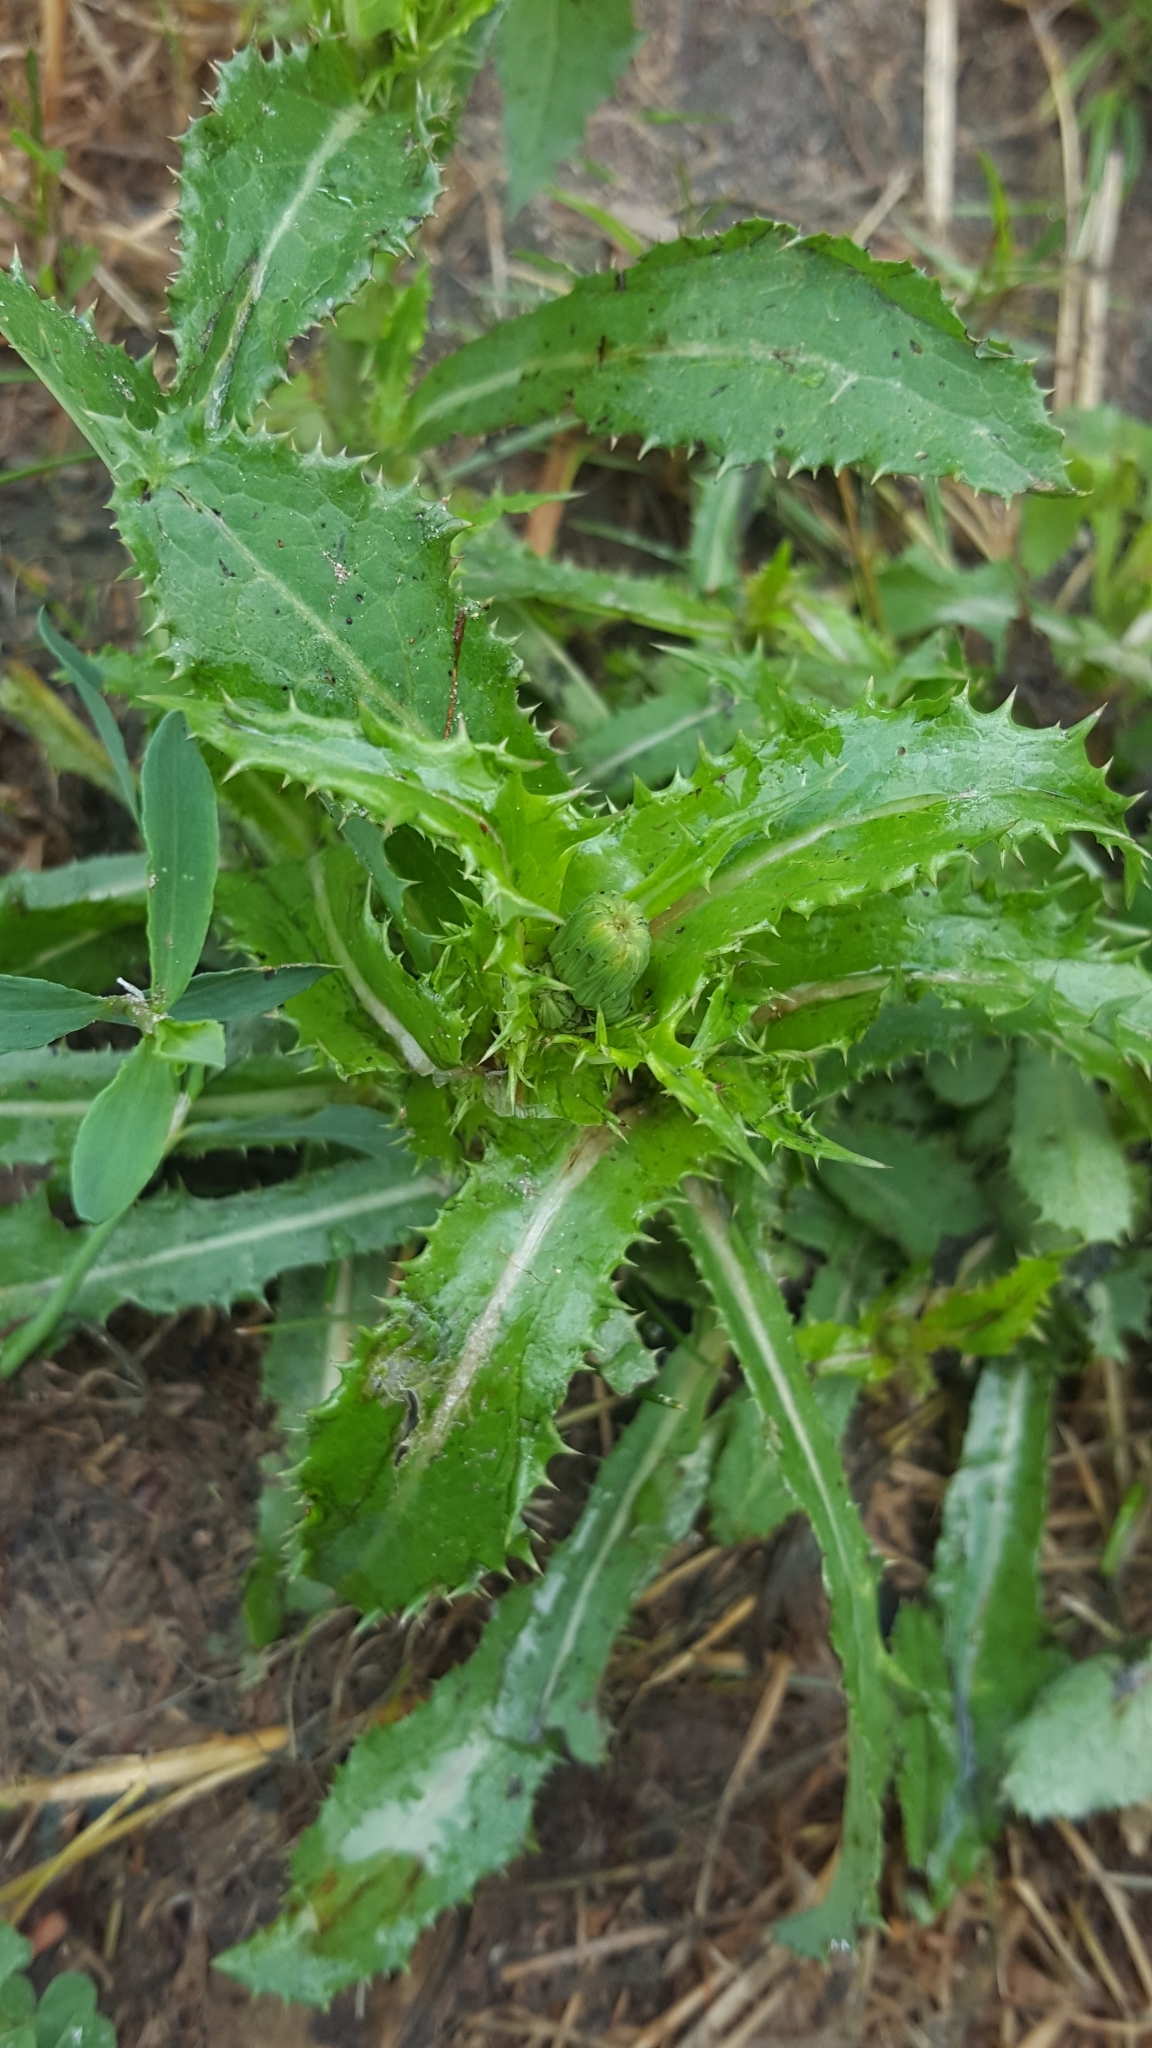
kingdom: Plantae
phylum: Tracheophyta
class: Magnoliopsida
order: Asterales
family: Asteraceae
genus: Sonchus
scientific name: Sonchus asper
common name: Prickly sow-thistle
